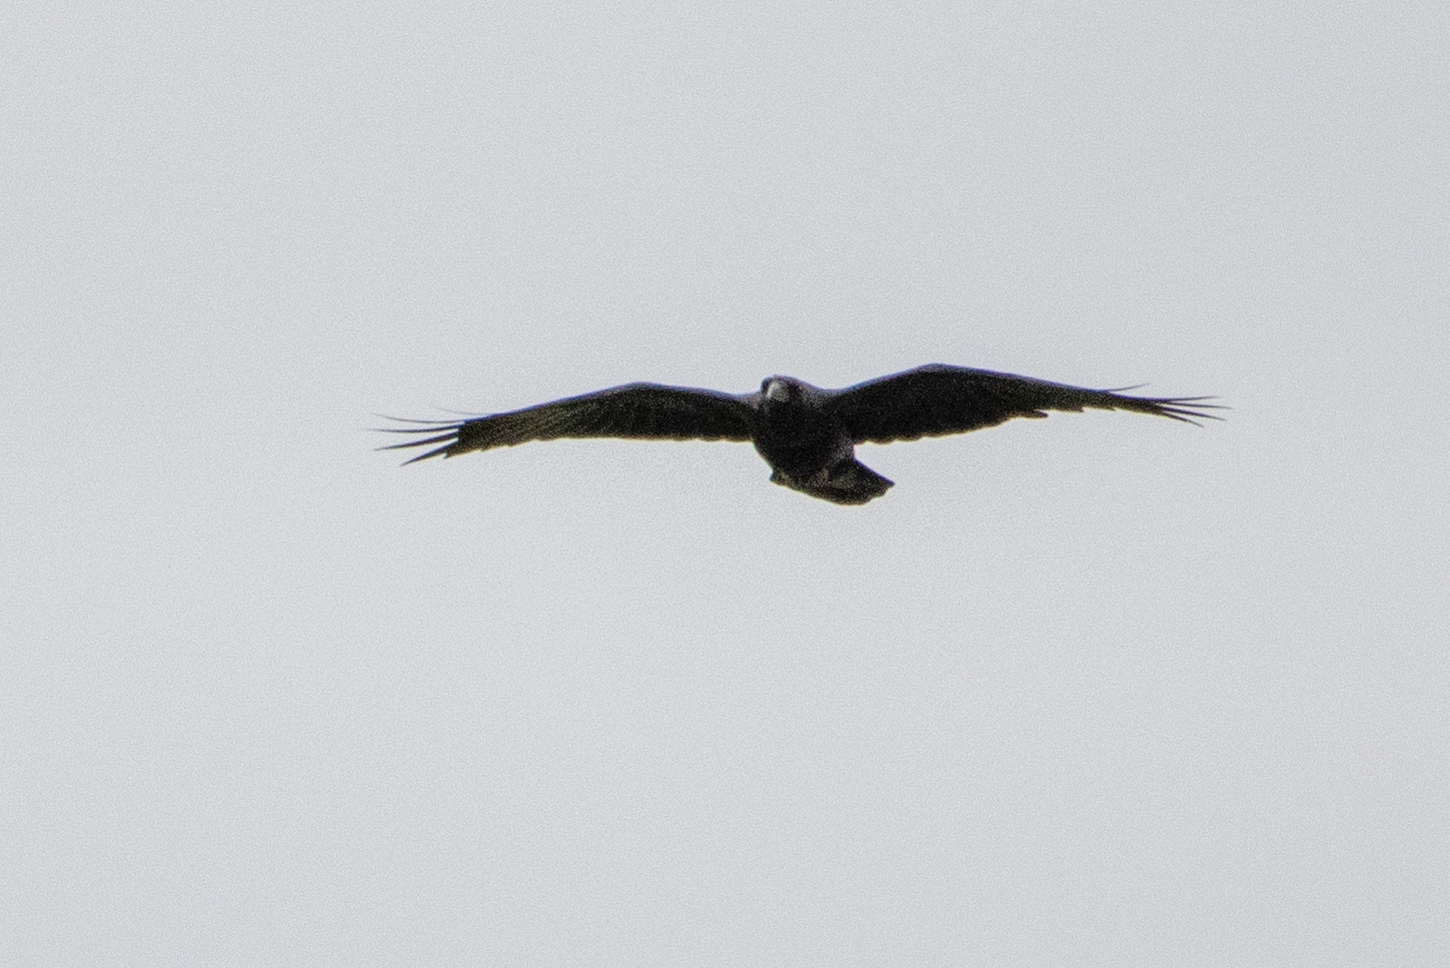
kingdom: Animalia
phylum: Chordata
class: Aves
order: Passeriformes
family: Corvidae
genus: Corvus
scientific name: Corvus corax
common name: Common raven
